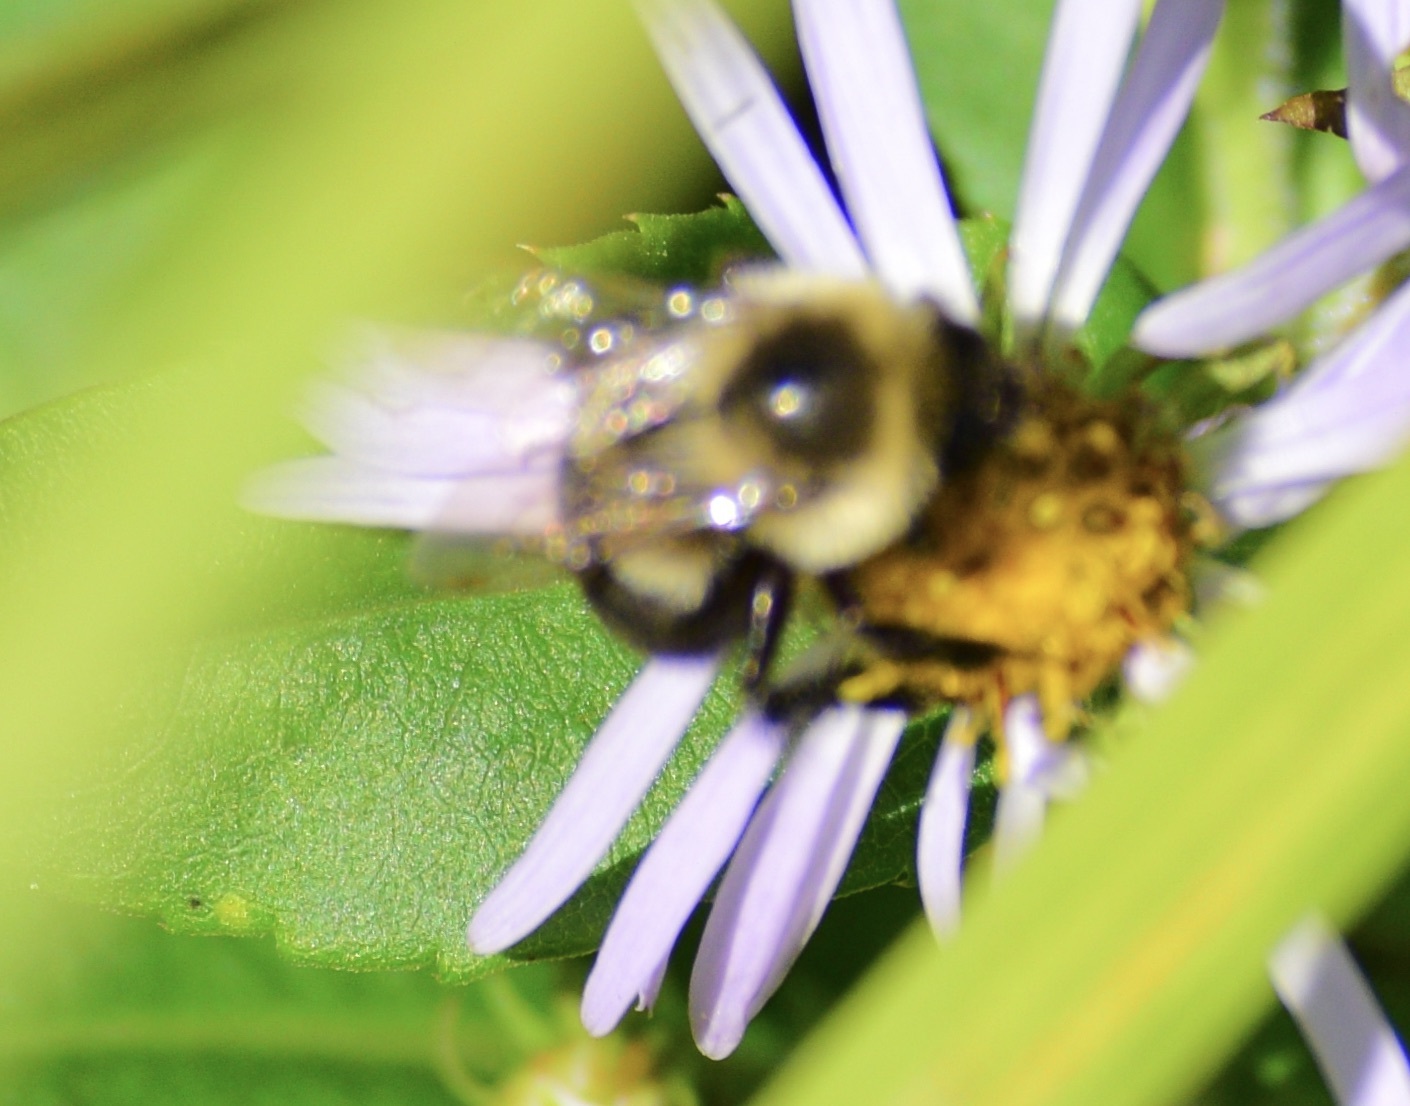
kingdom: Animalia
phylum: Arthropoda
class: Insecta
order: Hymenoptera
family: Apidae
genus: Bombus
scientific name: Bombus impatiens
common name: Common eastern bumble bee
